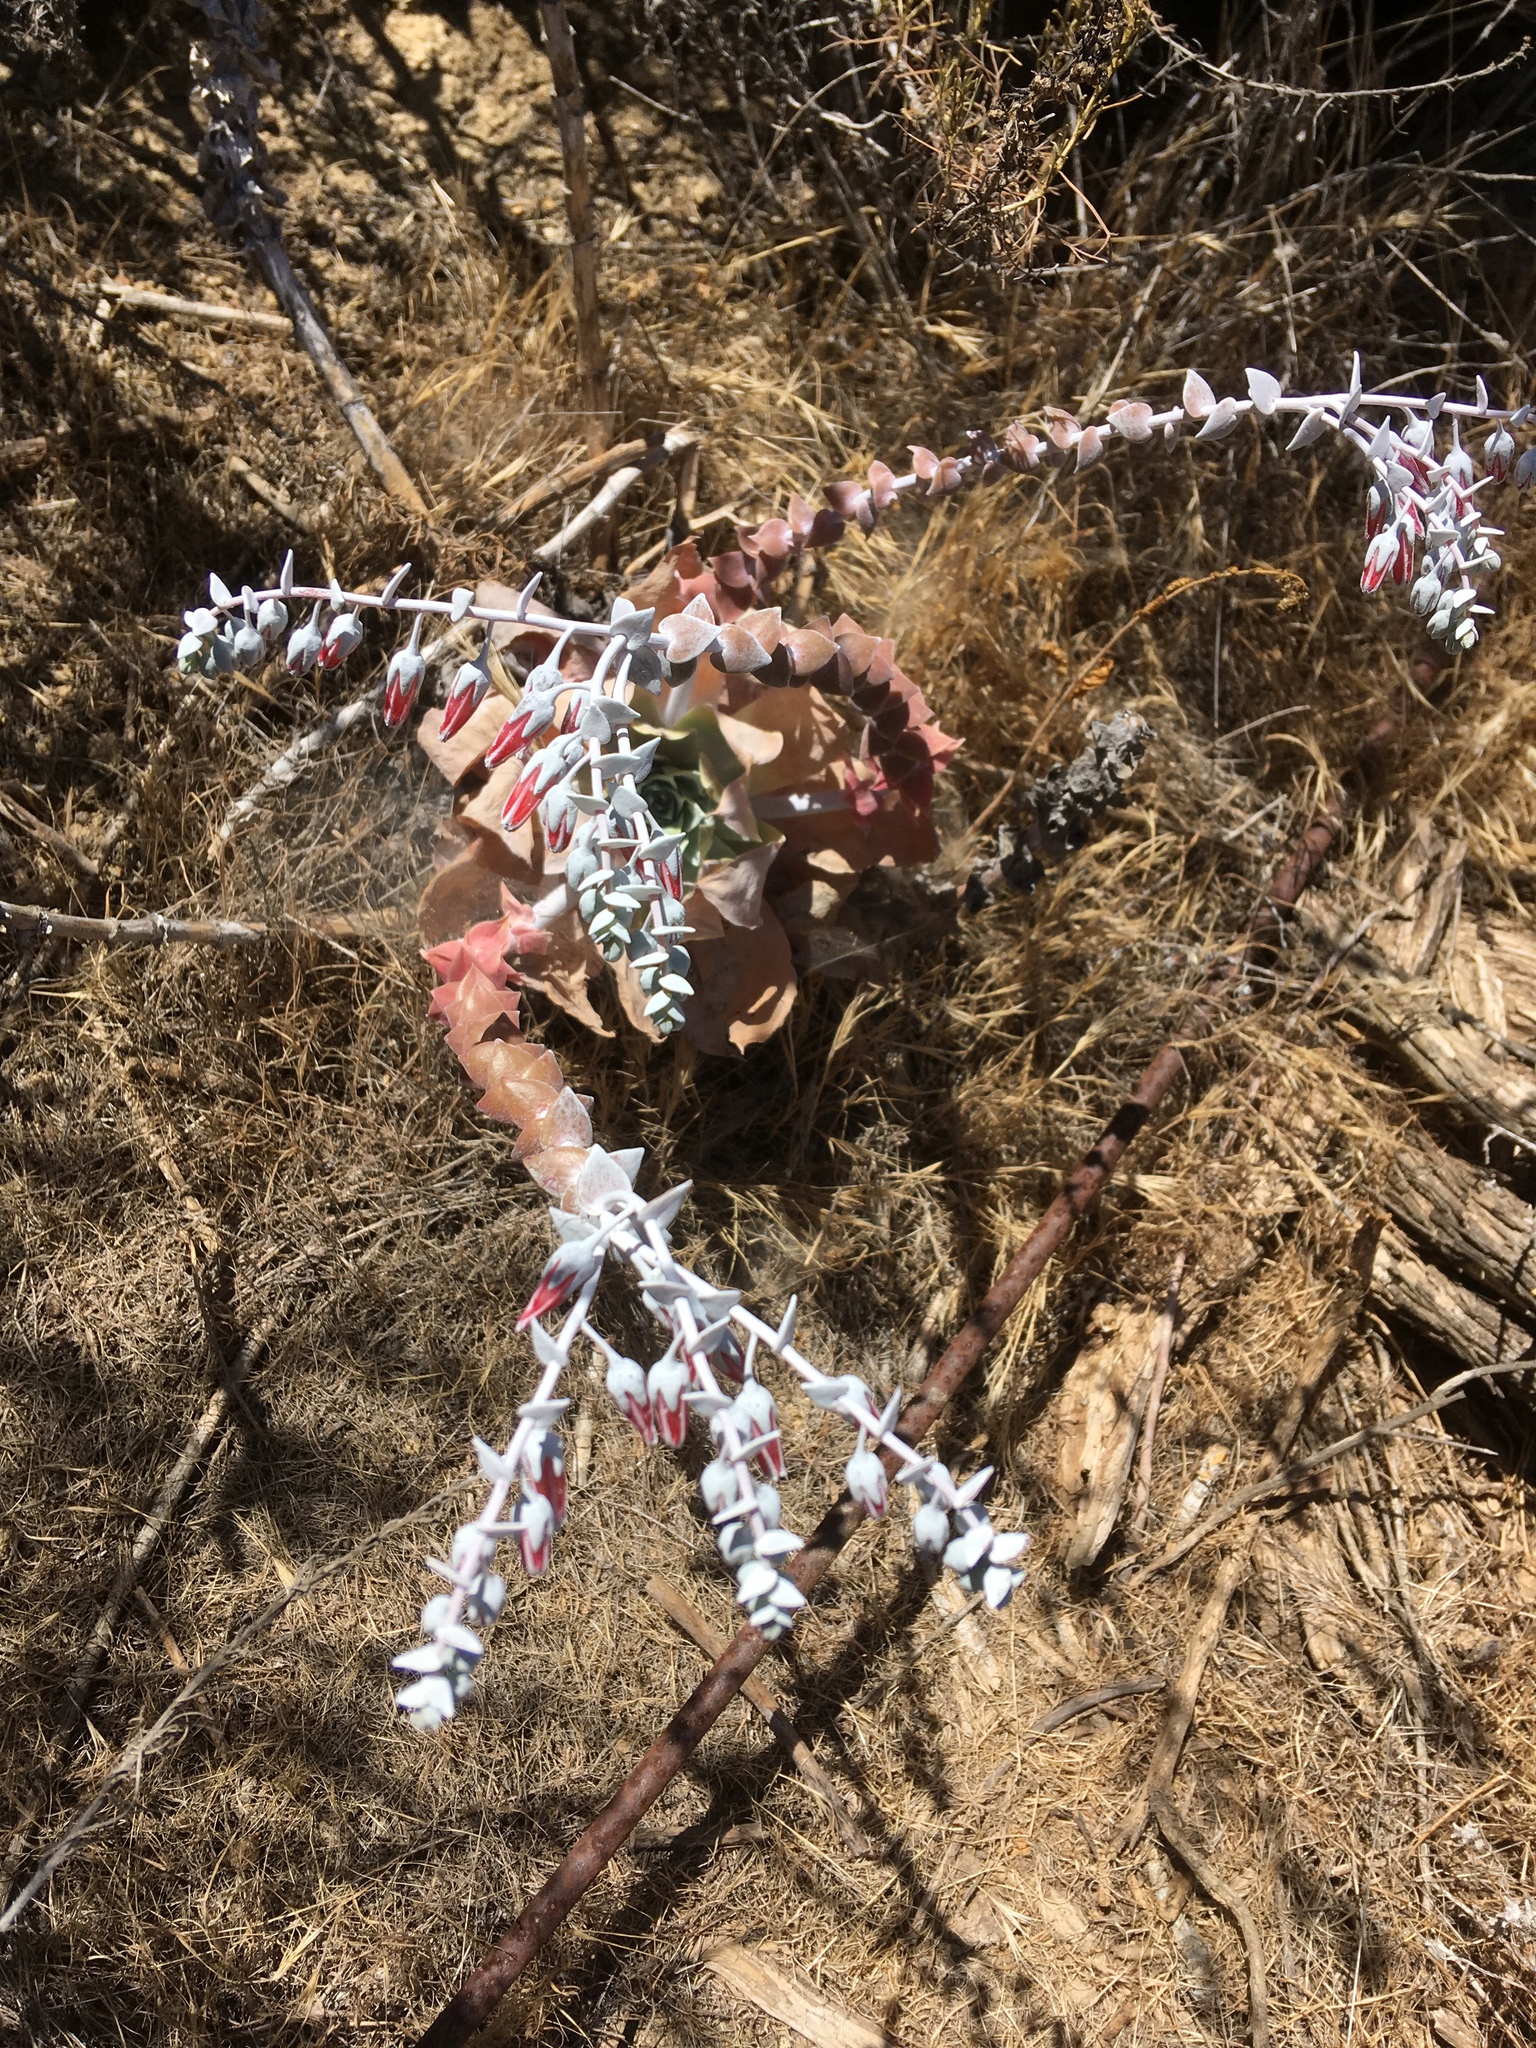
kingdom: Plantae
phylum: Tracheophyta
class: Magnoliopsida
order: Saxifragales
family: Crassulaceae
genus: Dudleya
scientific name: Dudleya pulverulenta
